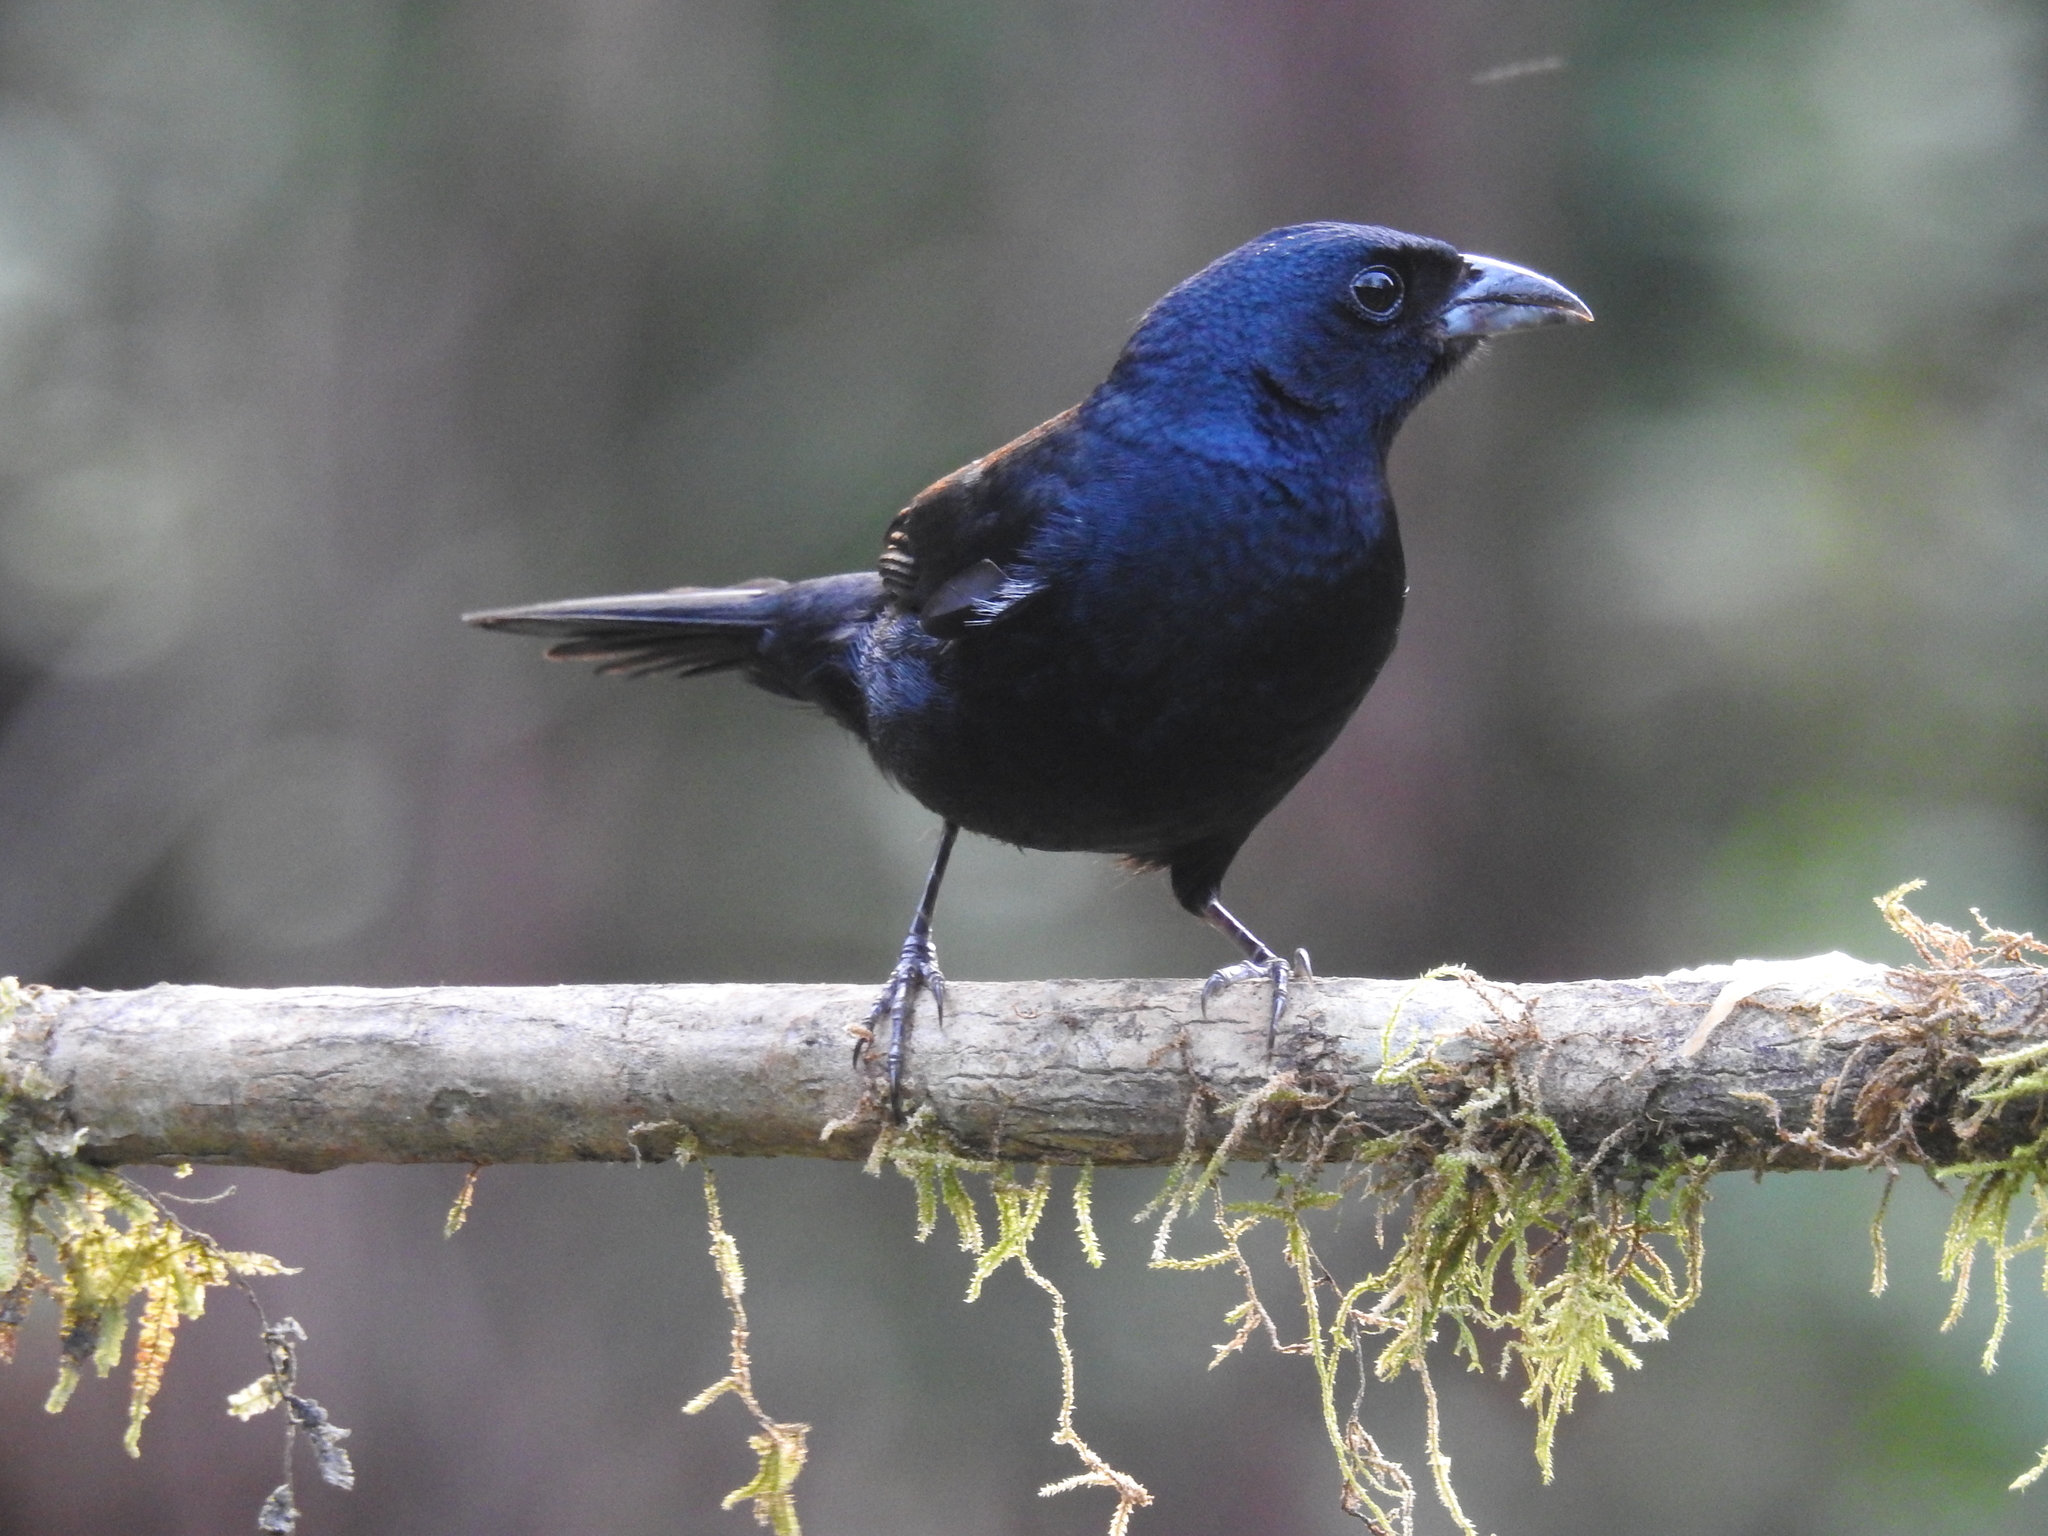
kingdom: Animalia
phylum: Chordata
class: Aves
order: Passeriformes
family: Thraupidae
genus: Tachyphonus
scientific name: Tachyphonus coronatus
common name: Ruby-crowned tanager
